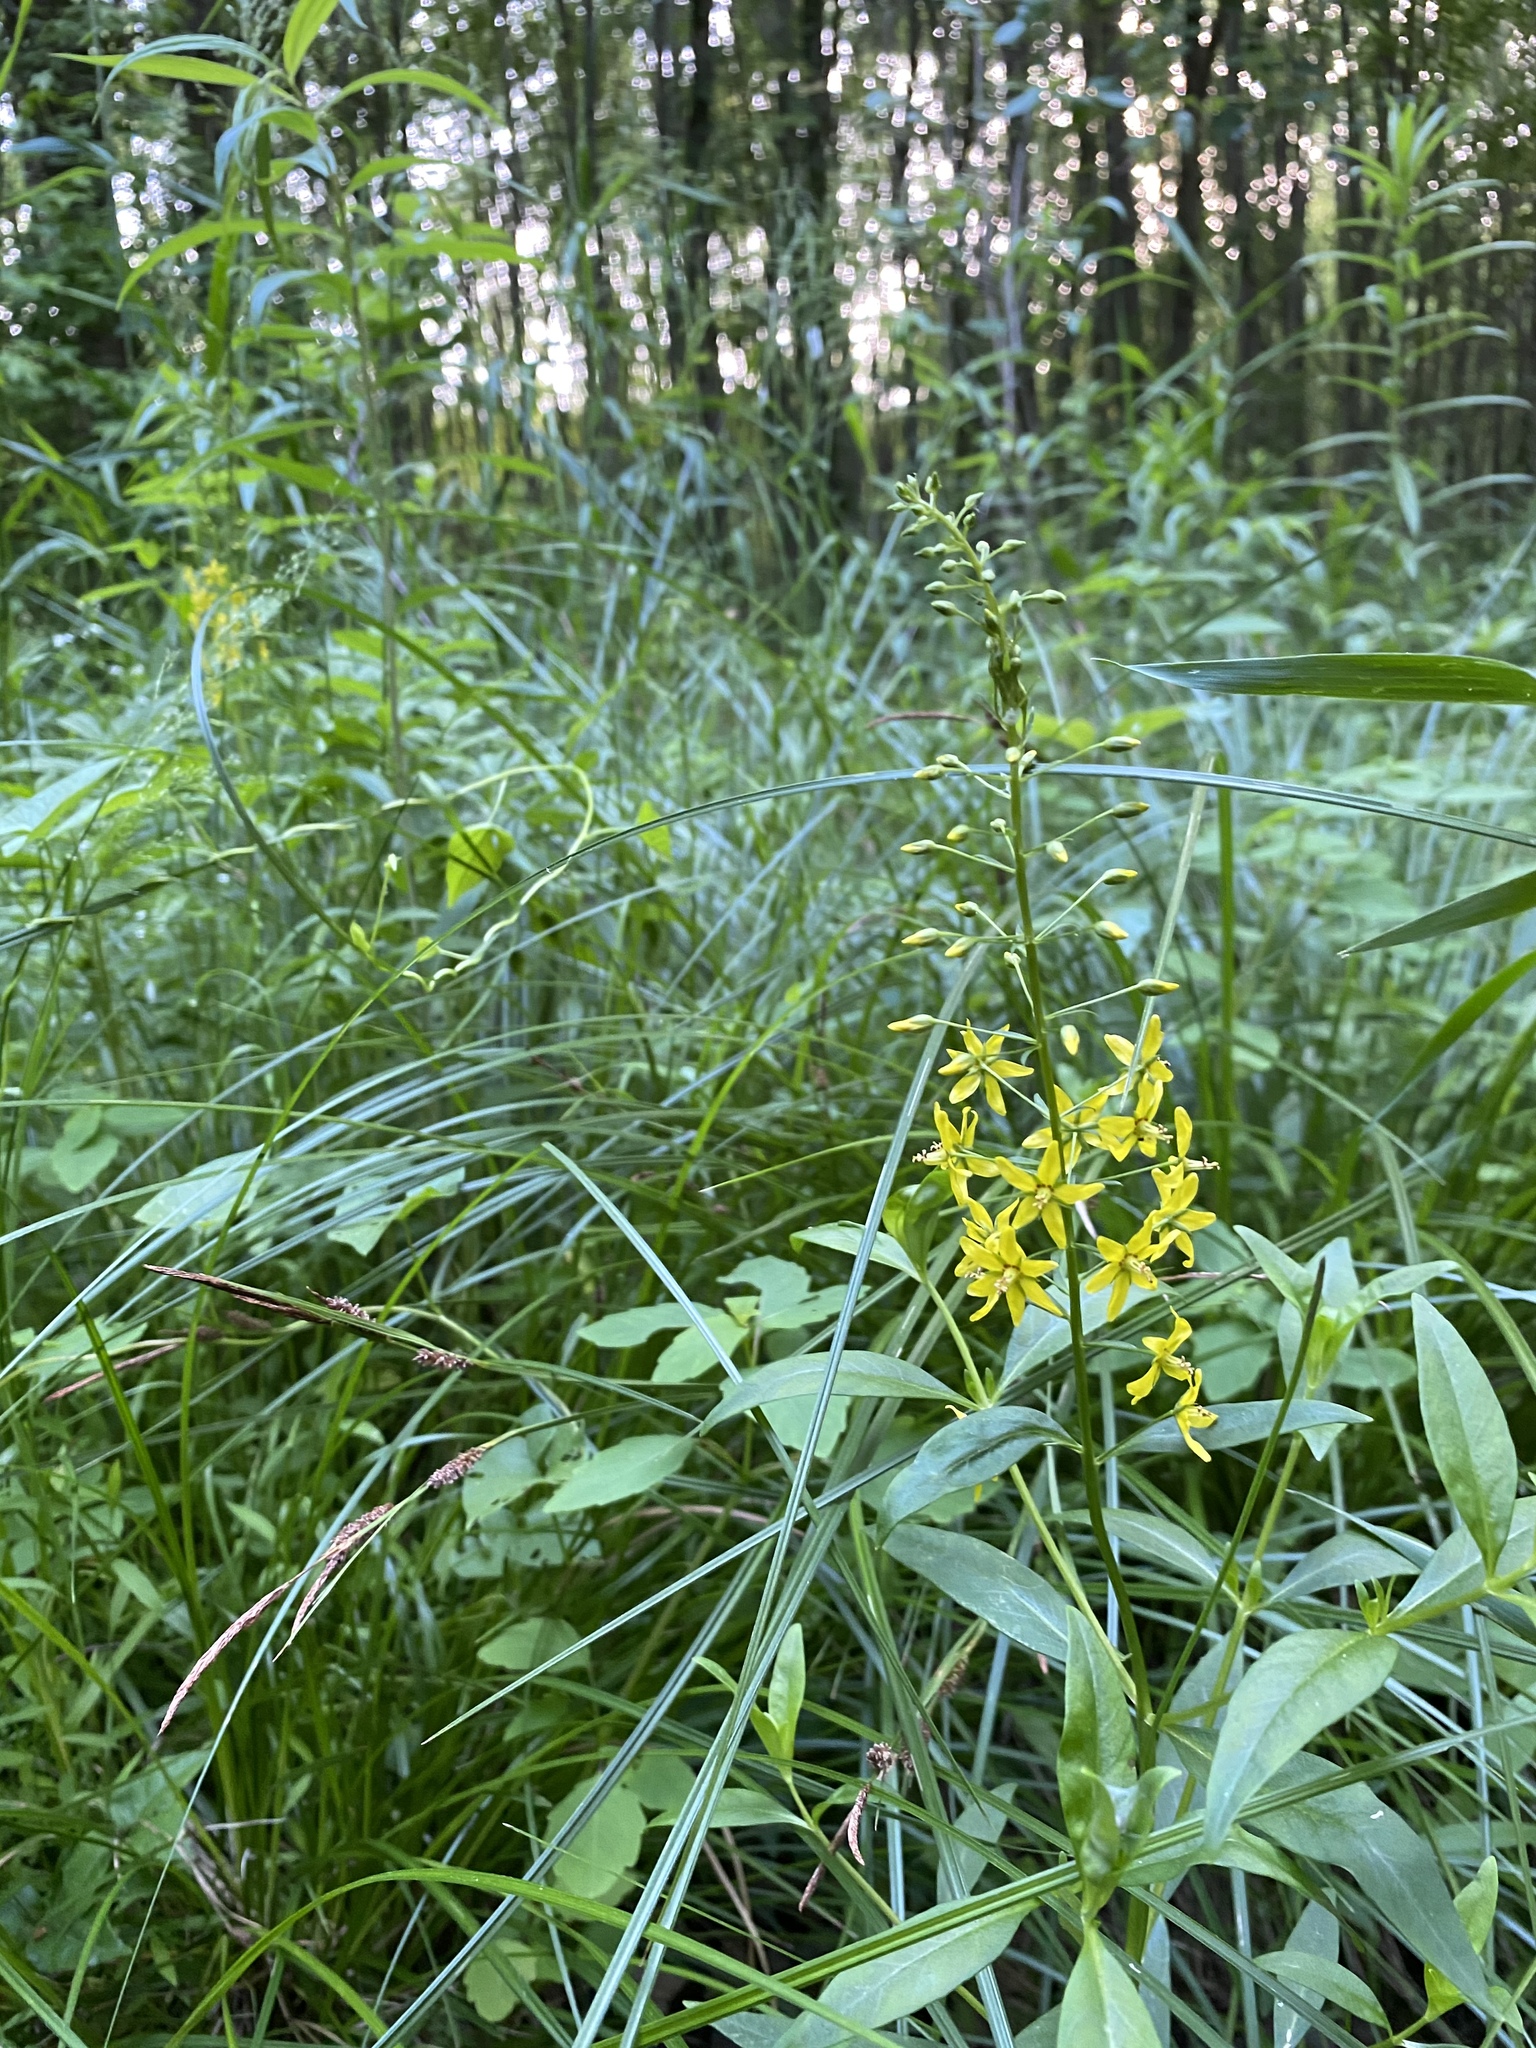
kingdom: Plantae
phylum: Tracheophyta
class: Magnoliopsida
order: Ericales
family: Primulaceae
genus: Lysimachia
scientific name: Lysimachia terrestris
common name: Lake loosestrife
